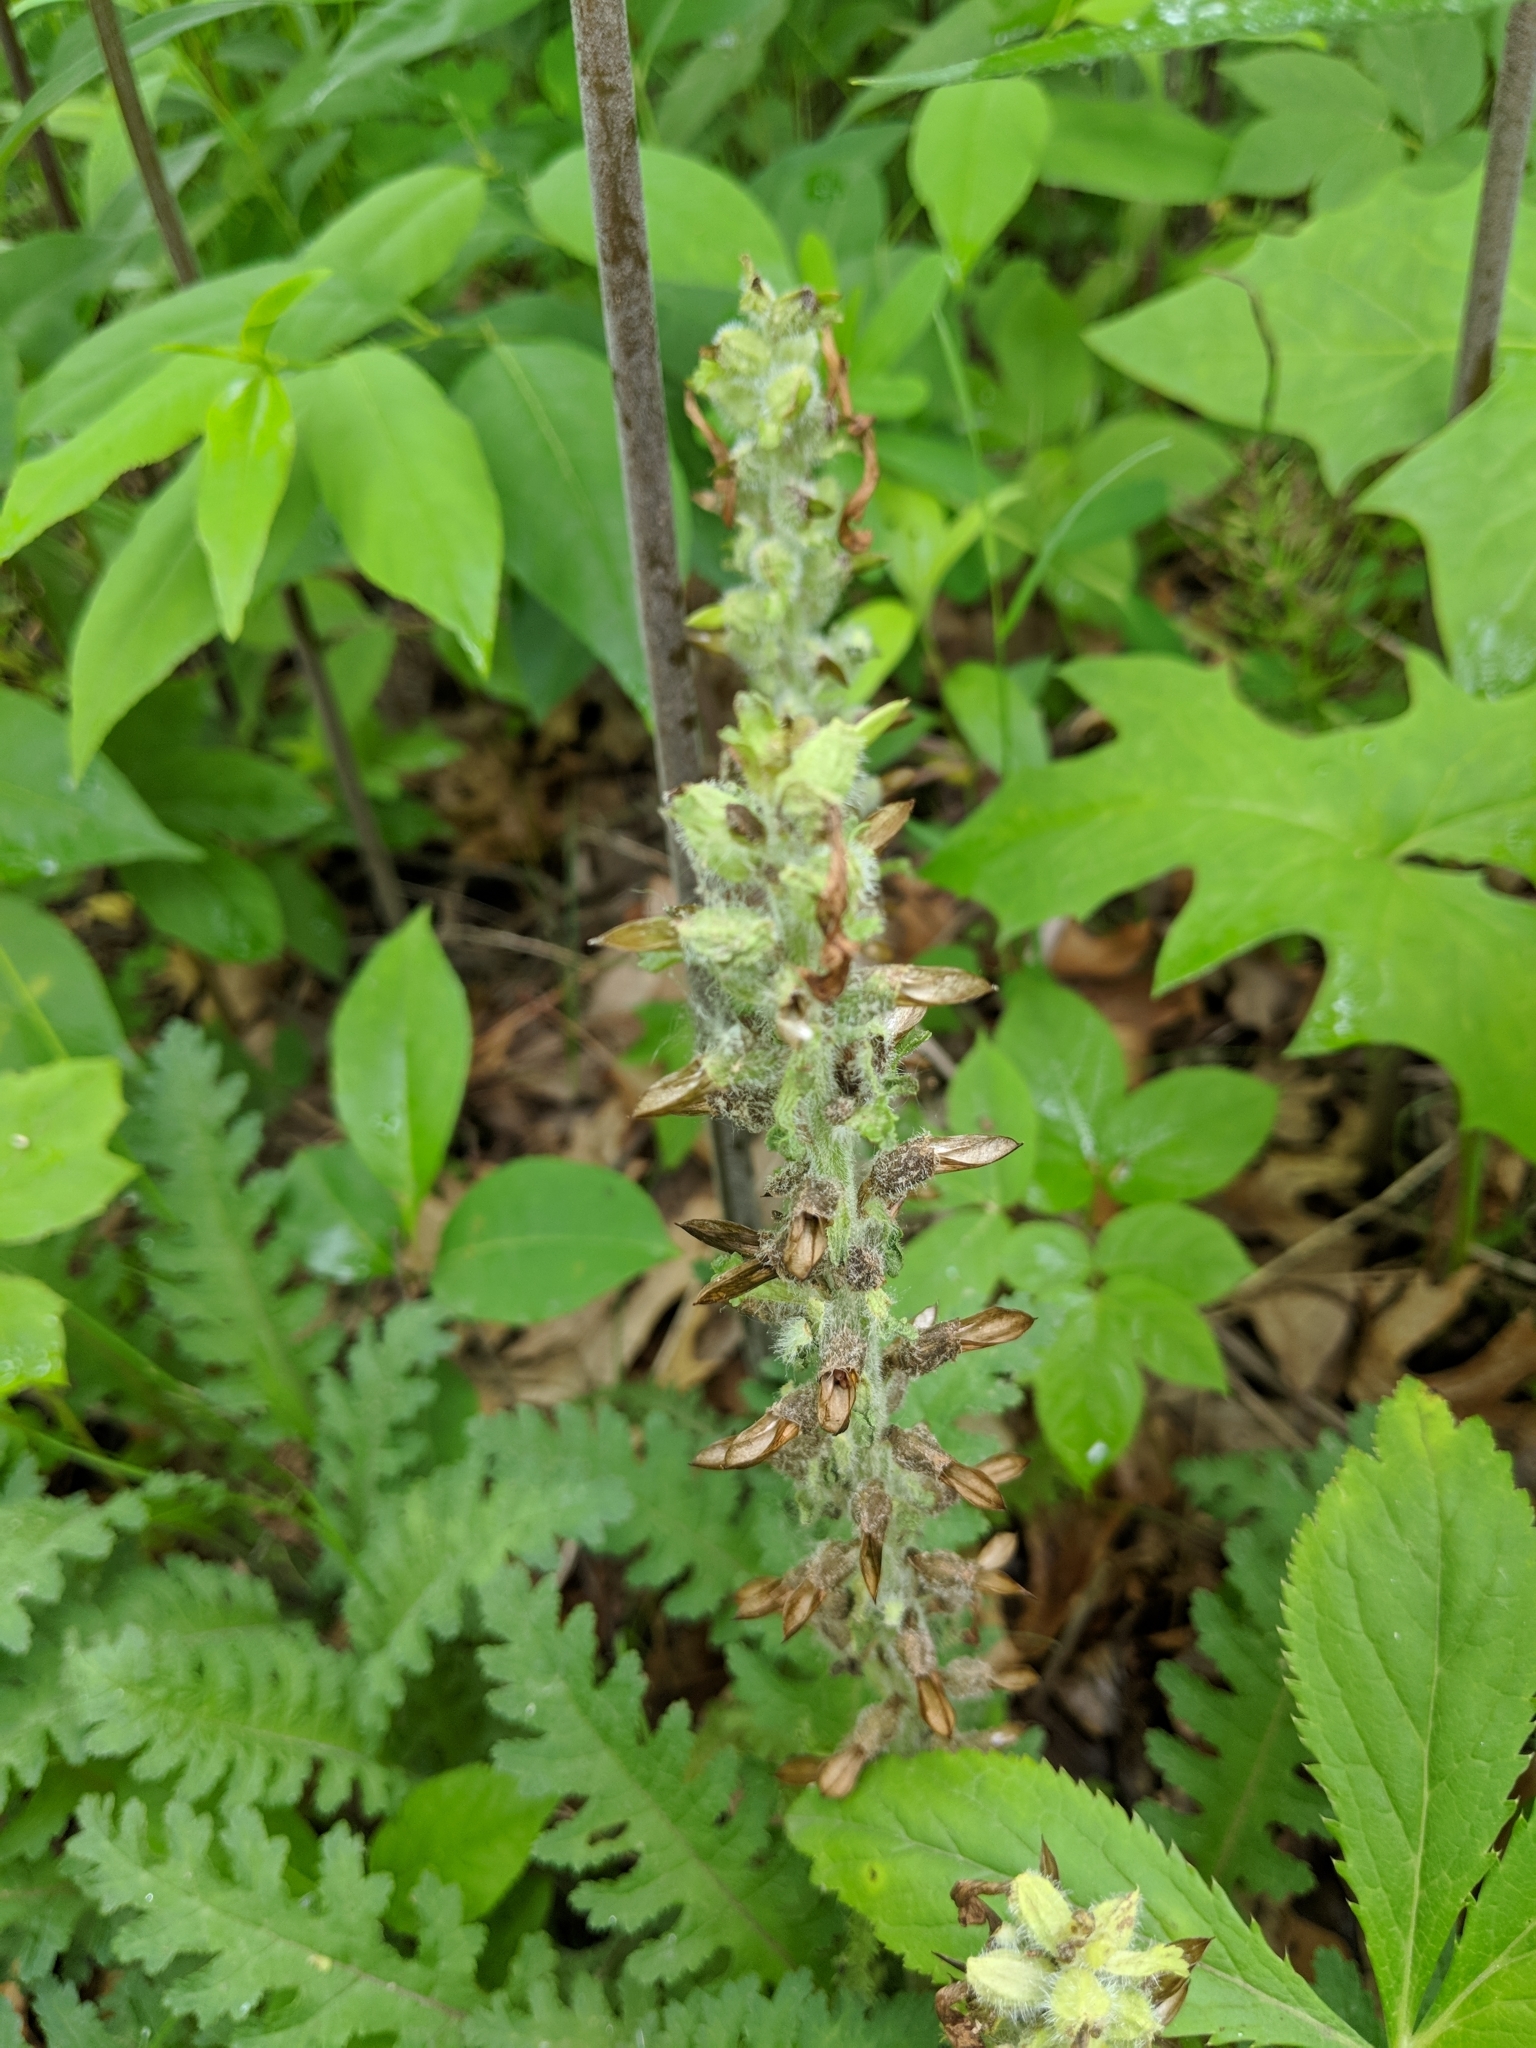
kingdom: Plantae
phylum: Tracheophyta
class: Magnoliopsida
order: Lamiales
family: Orobanchaceae
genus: Pedicularis
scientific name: Pedicularis canadensis
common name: Early lousewort
